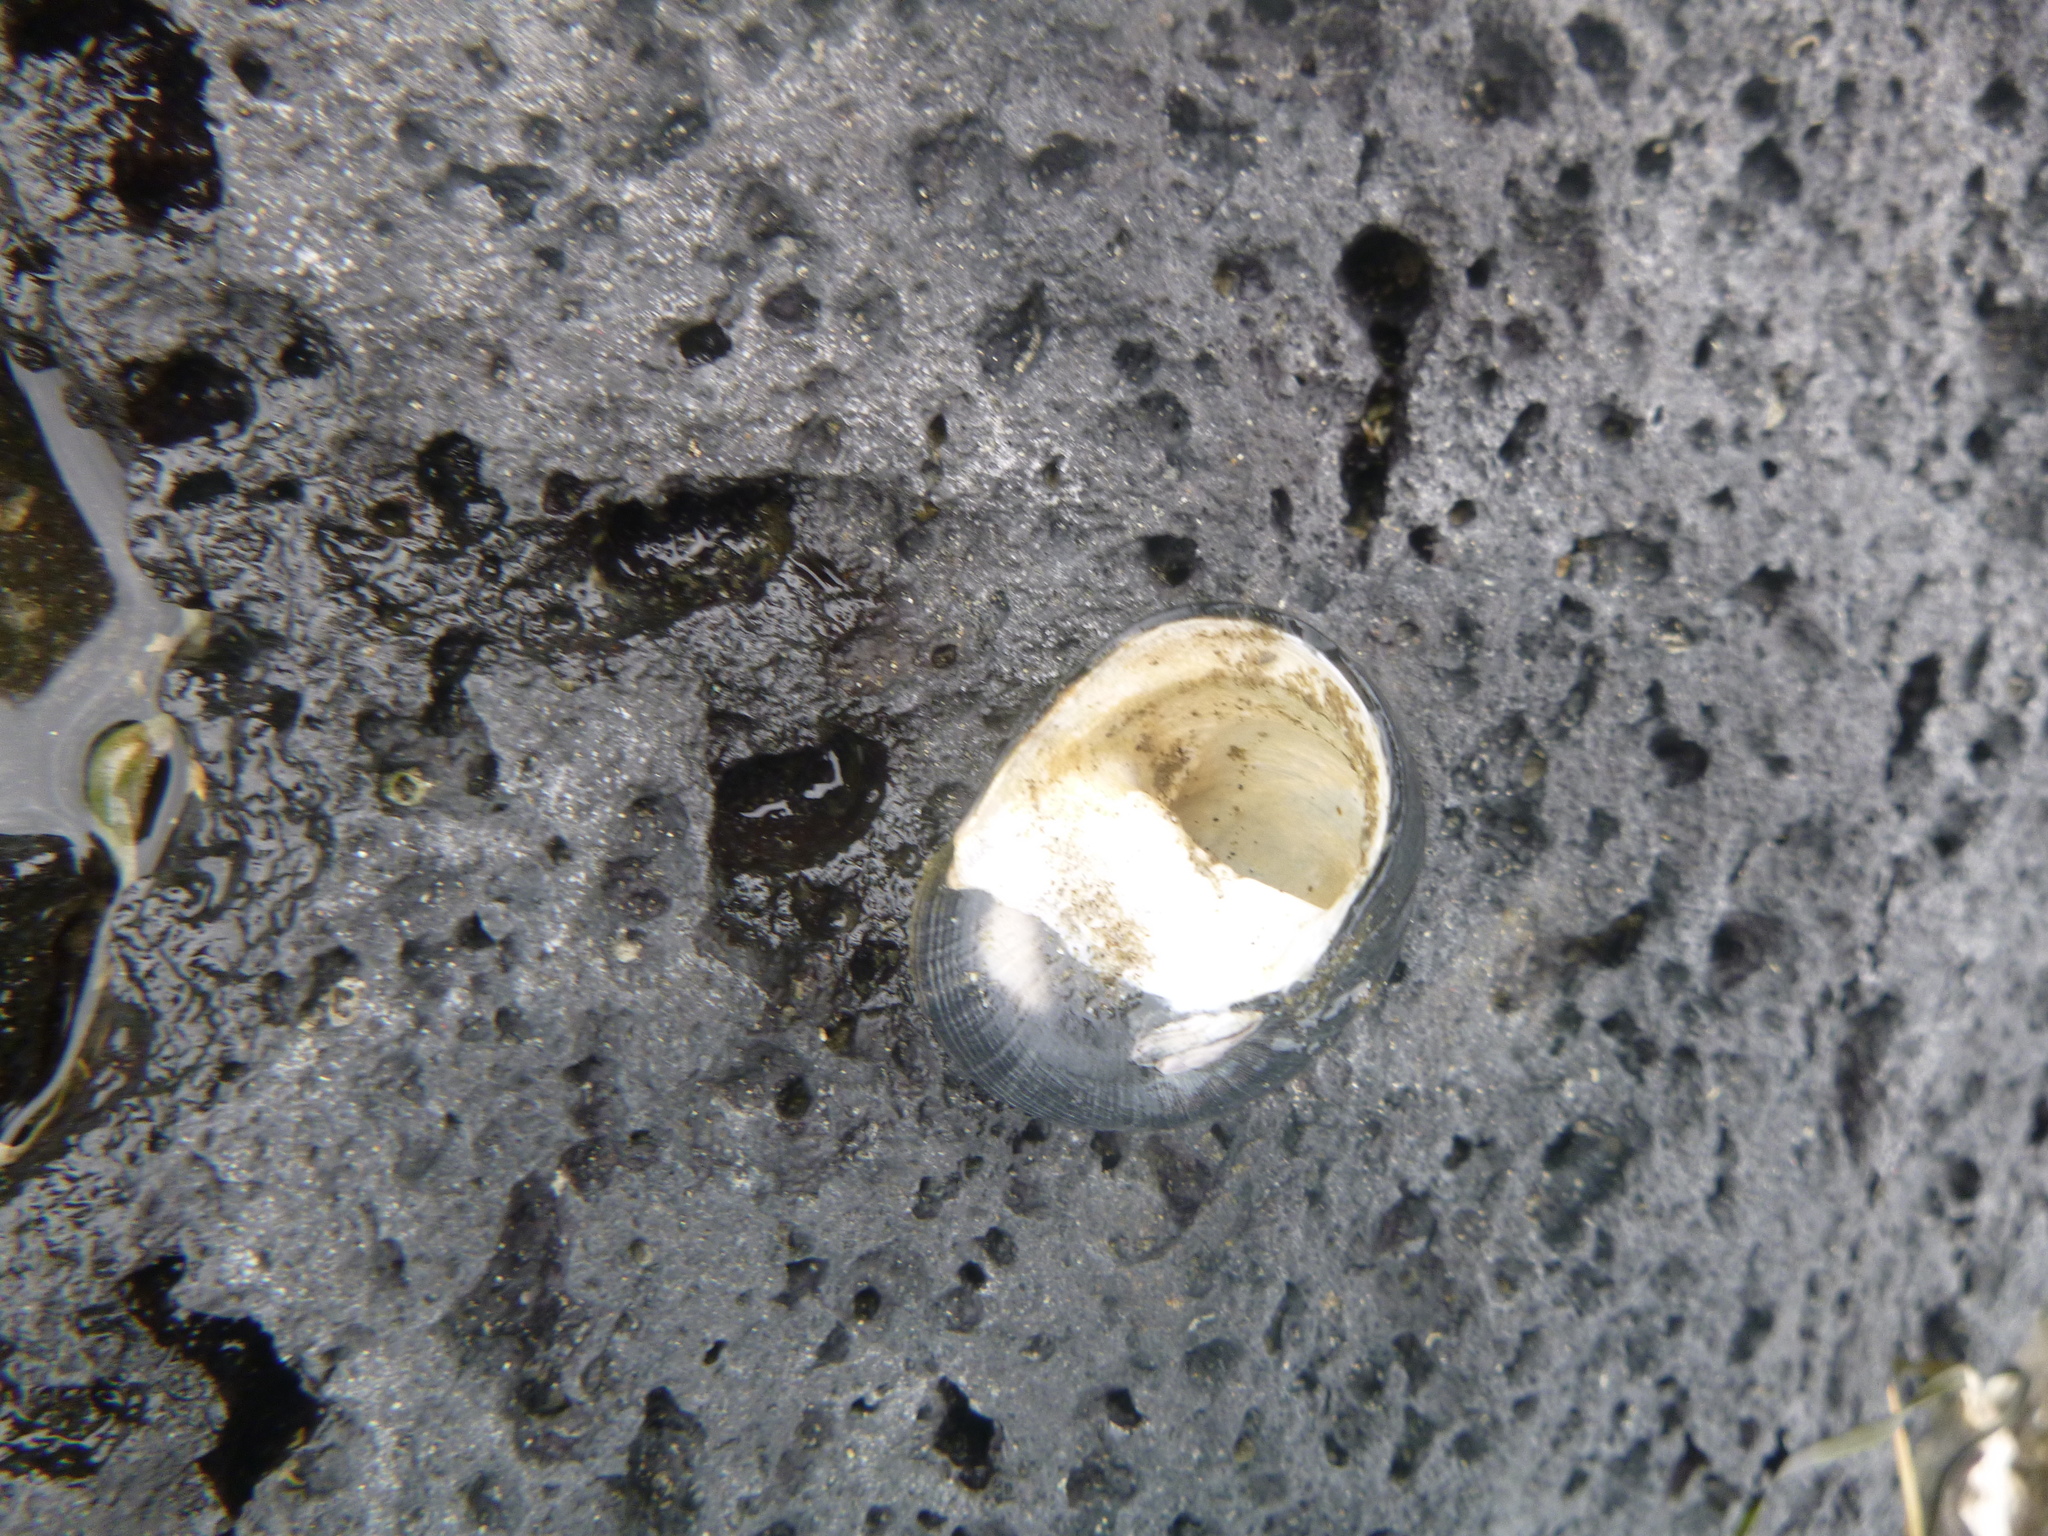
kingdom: Animalia
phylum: Mollusca
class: Gastropoda
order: Cycloneritida
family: Neritidae
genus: Nerita
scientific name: Nerita melanotragus
